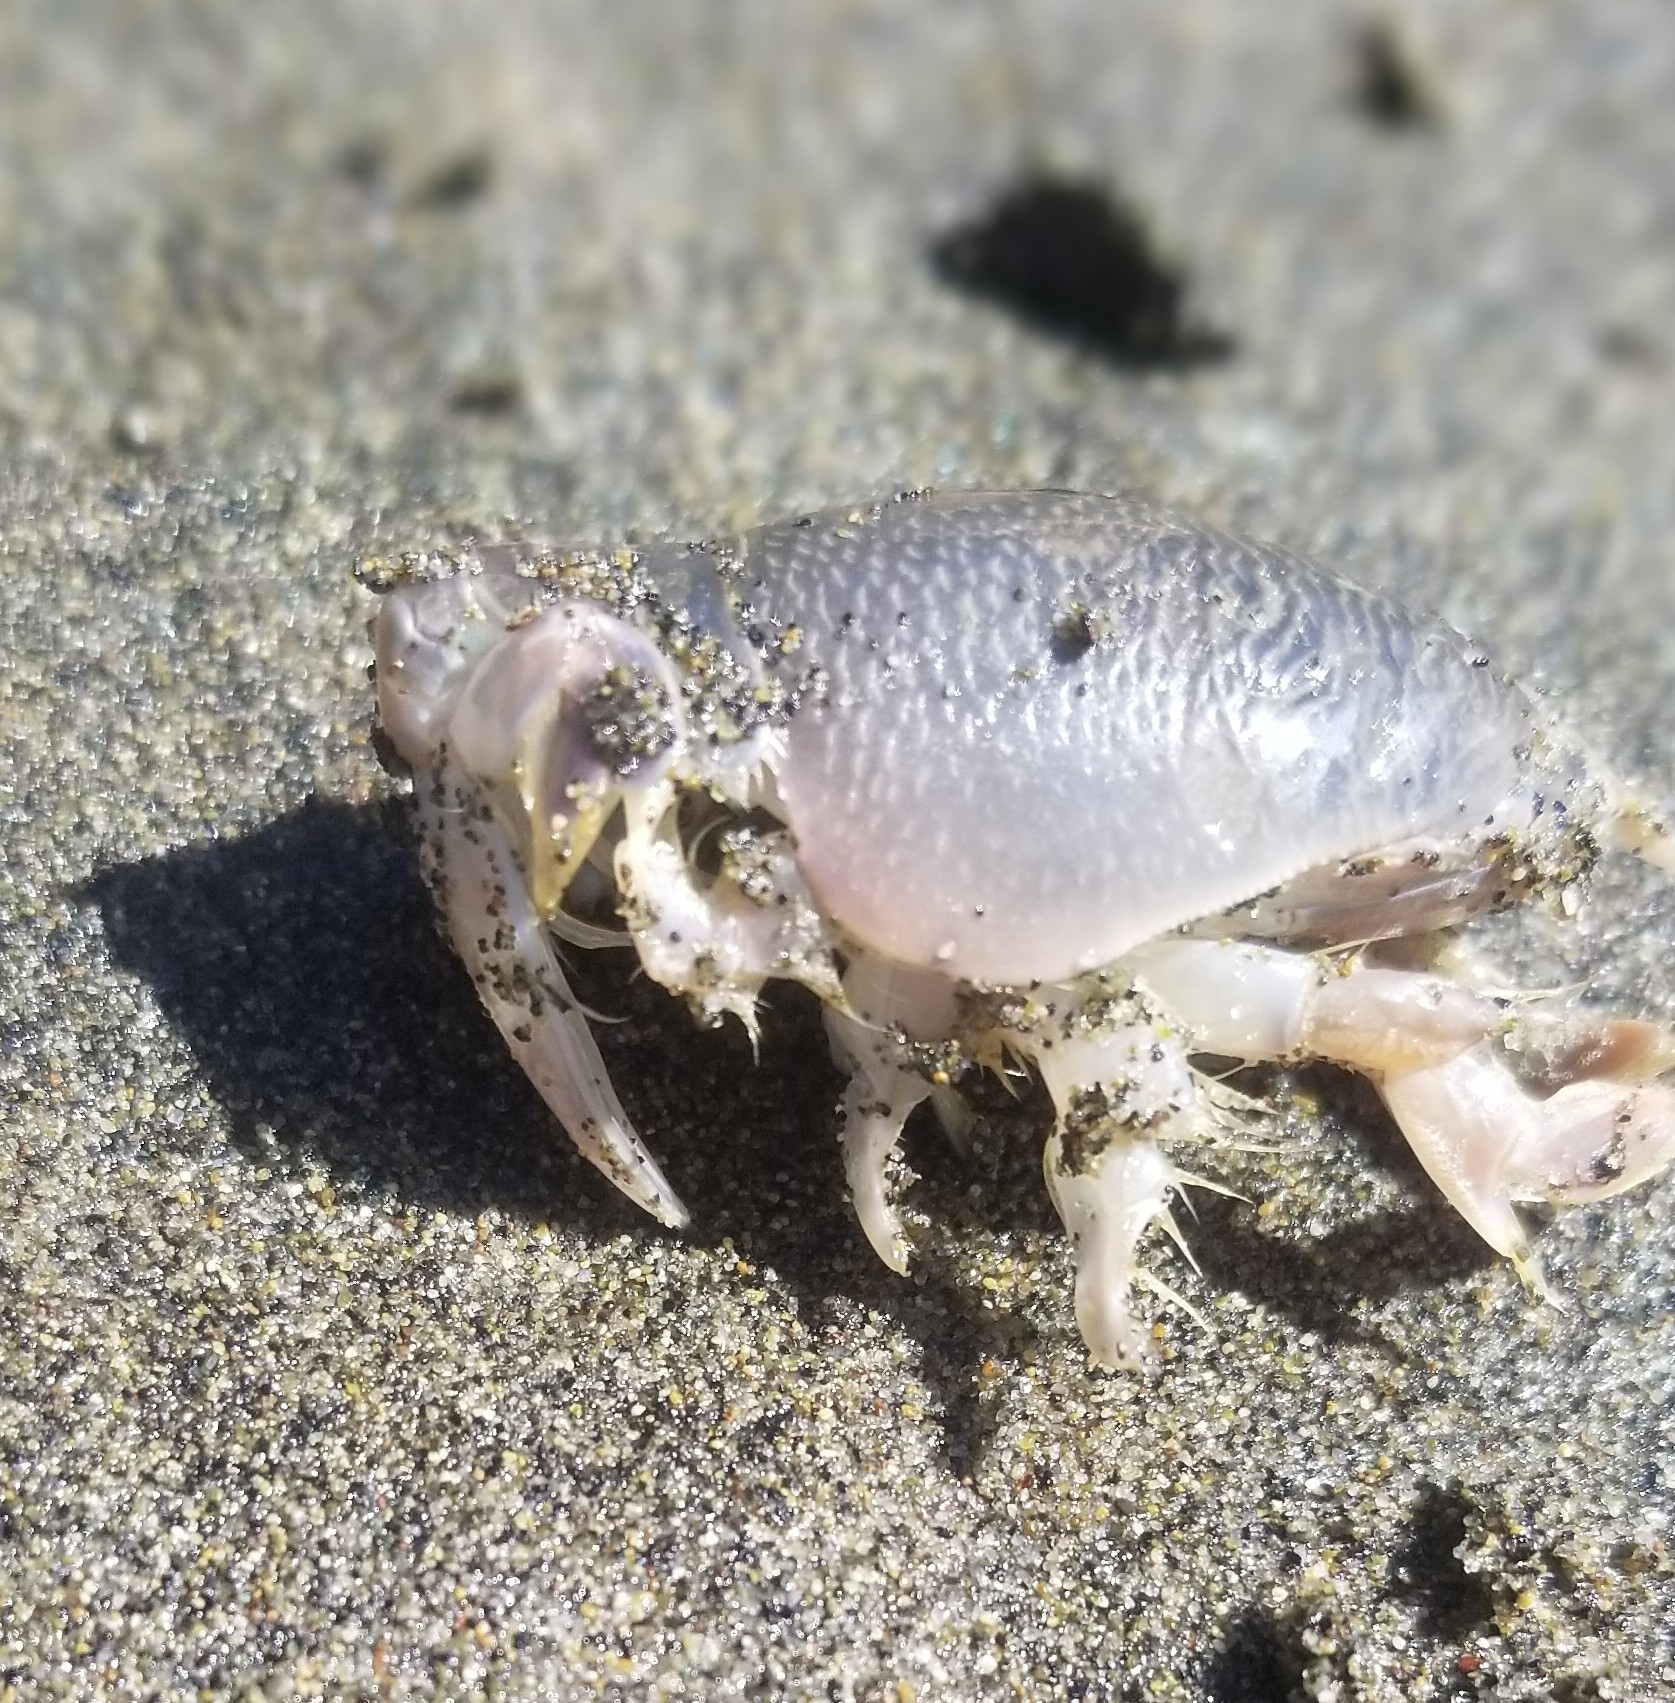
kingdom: Animalia
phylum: Arthropoda
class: Malacostraca
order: Decapoda
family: Hippidae
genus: Emerita
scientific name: Emerita analoga
